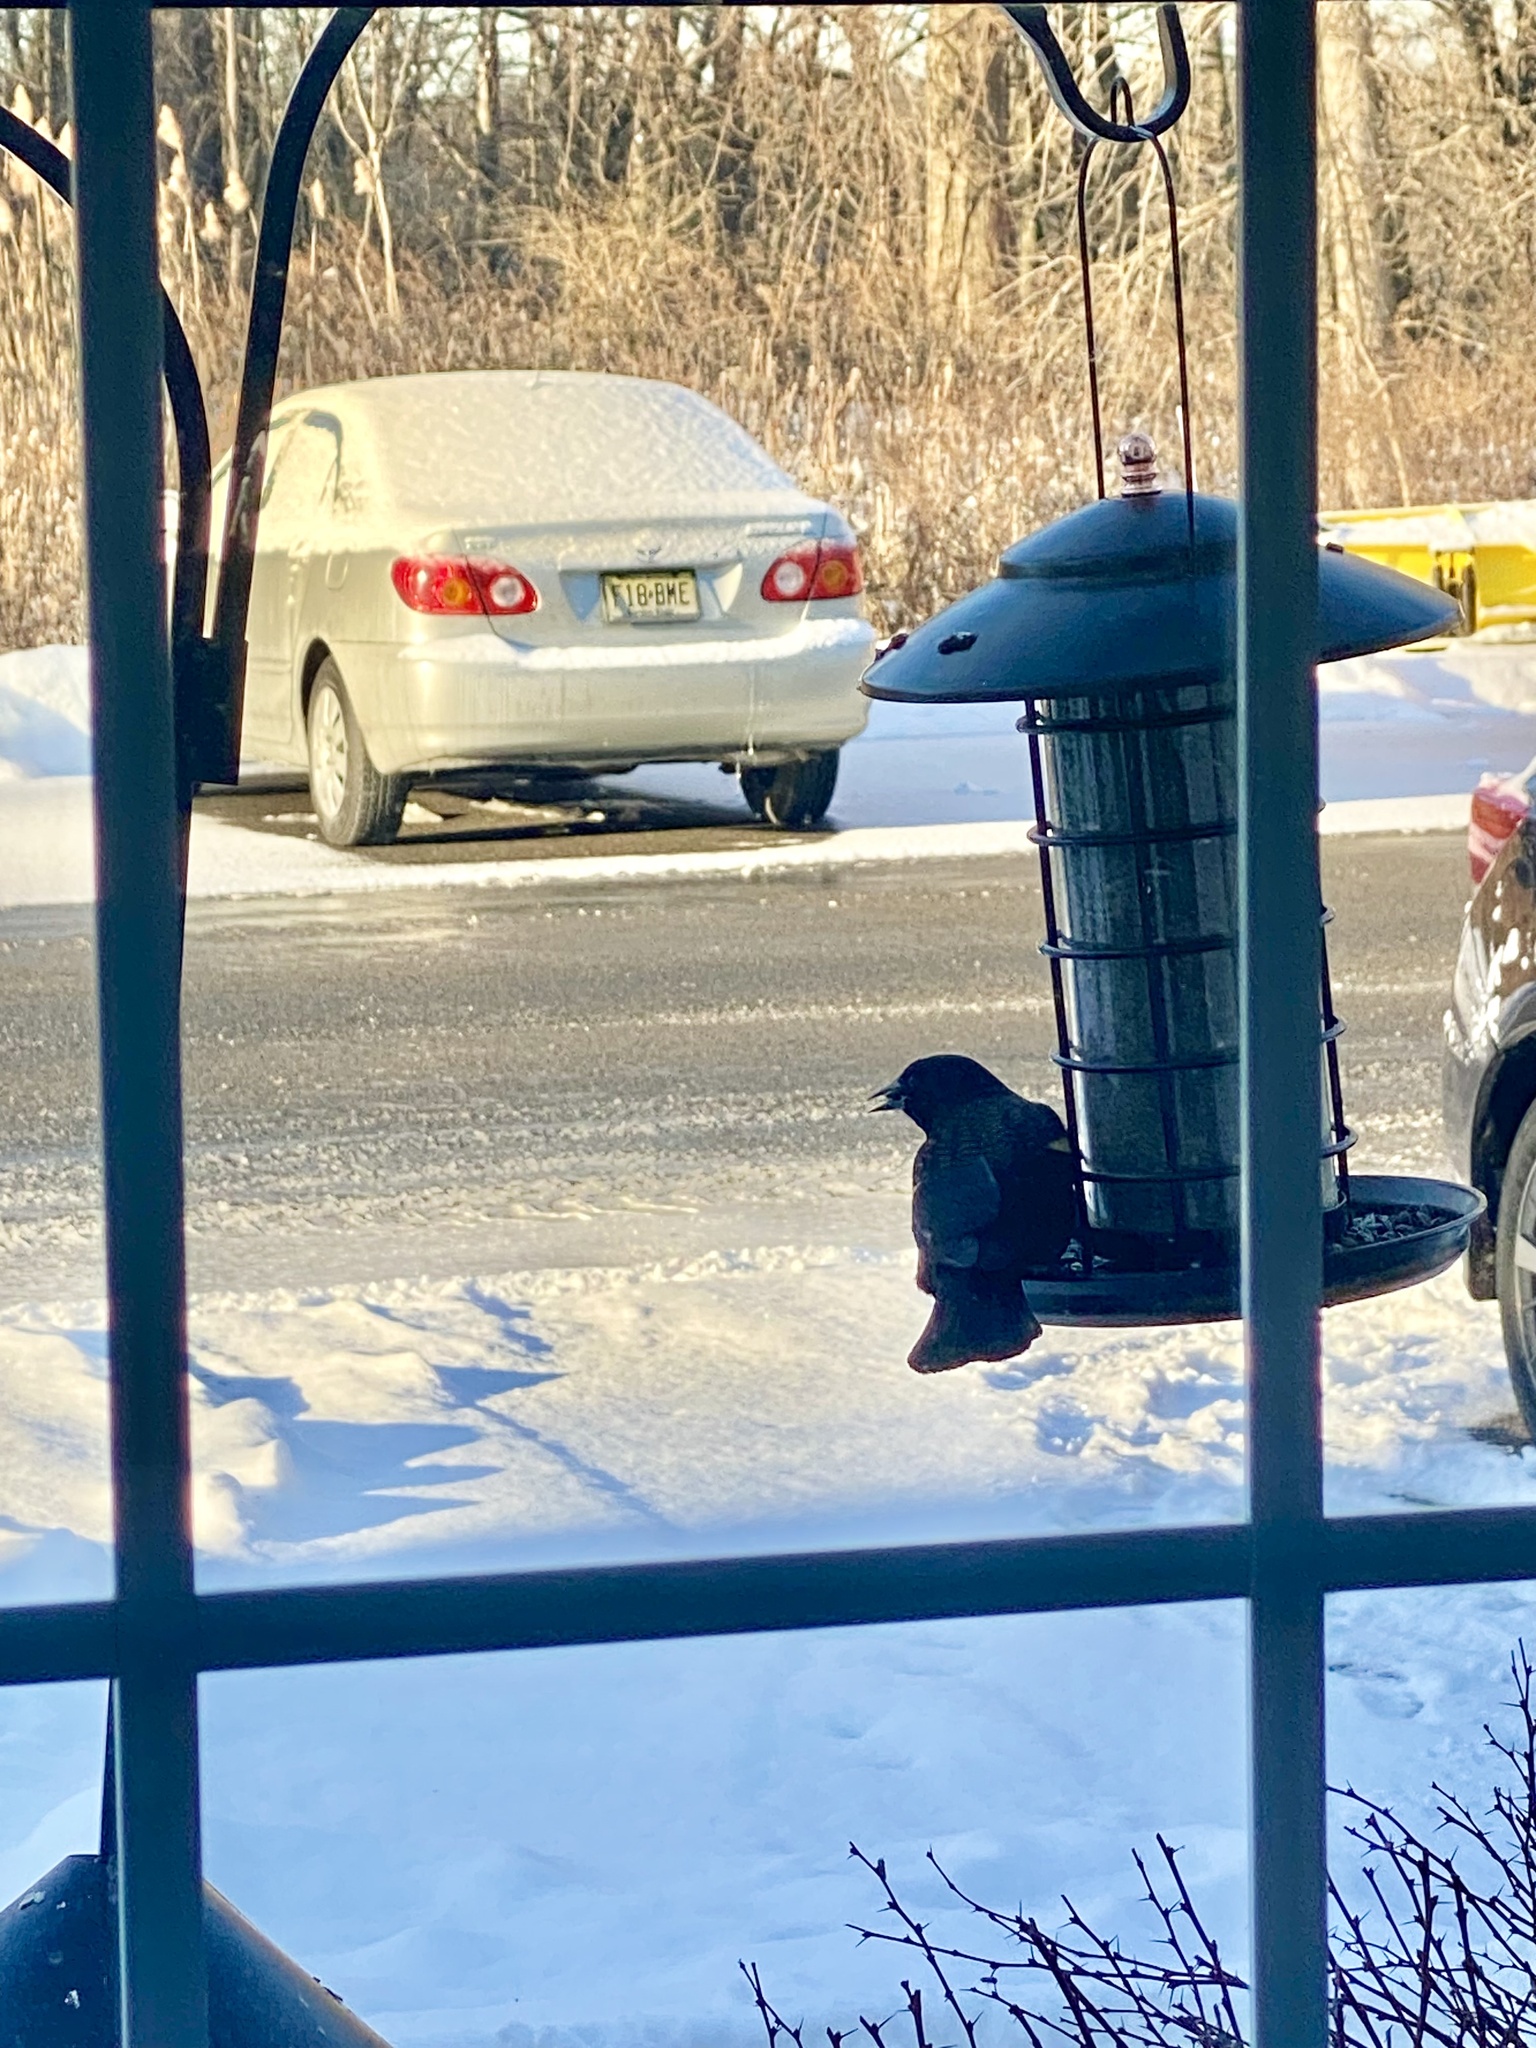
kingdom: Animalia
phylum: Chordata
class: Aves
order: Passeriformes
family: Icteridae
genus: Agelaius
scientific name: Agelaius phoeniceus
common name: Red-winged blackbird
